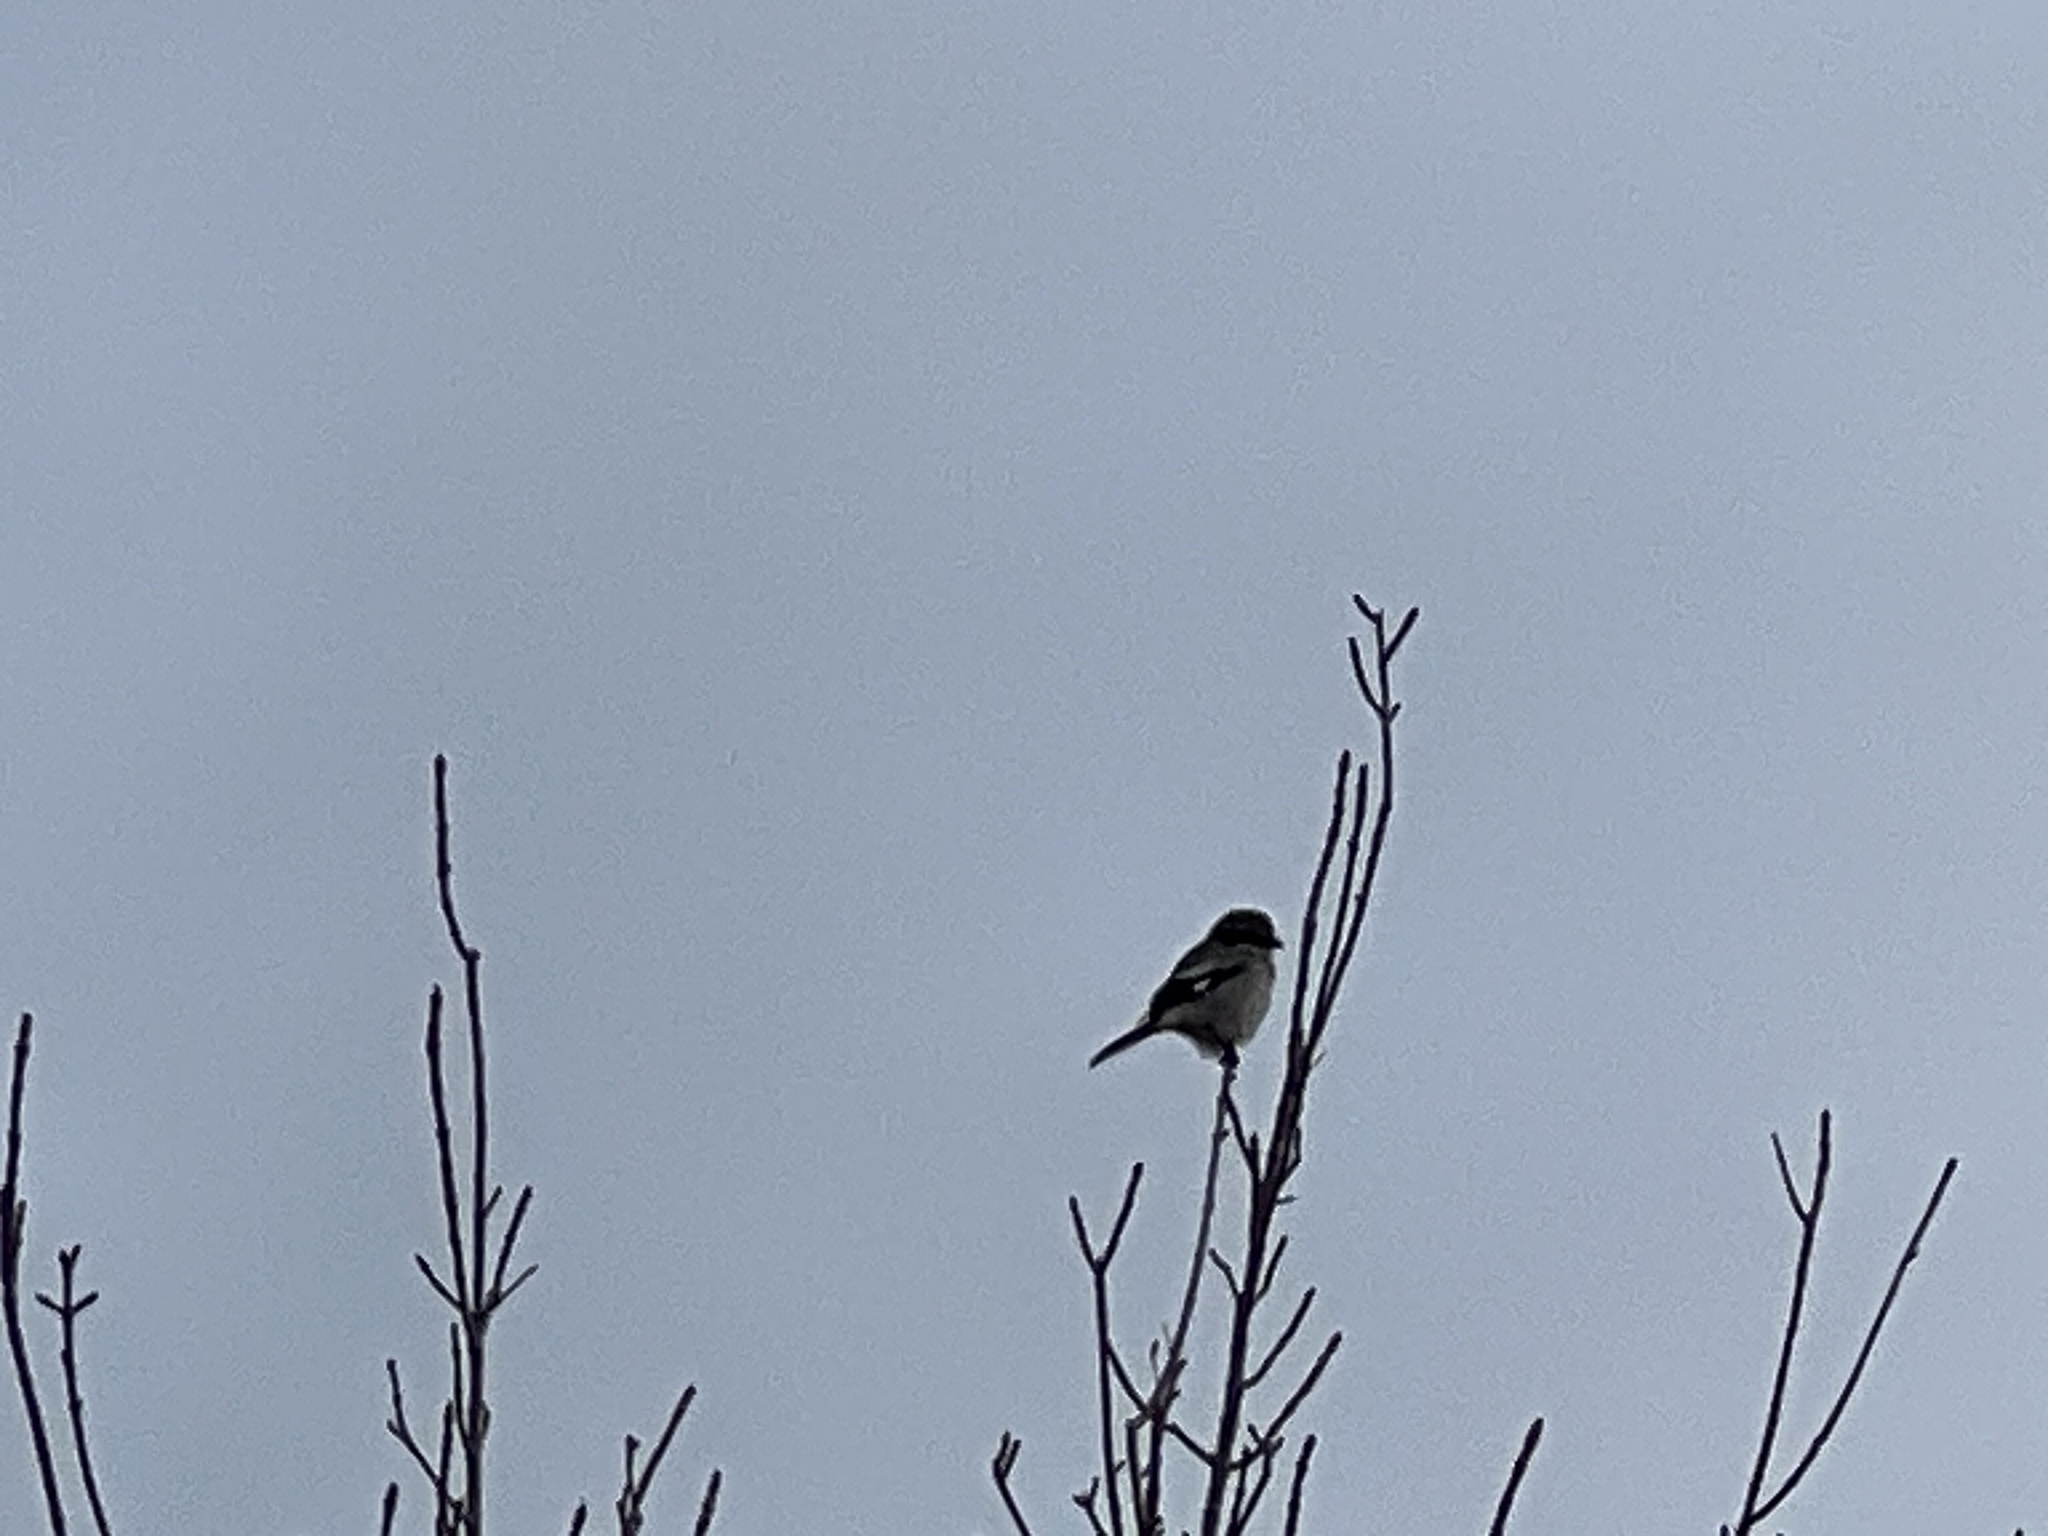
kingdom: Animalia
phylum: Chordata
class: Aves
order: Passeriformes
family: Laniidae
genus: Lanius
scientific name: Lanius ludovicianus
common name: Loggerhead shrike
